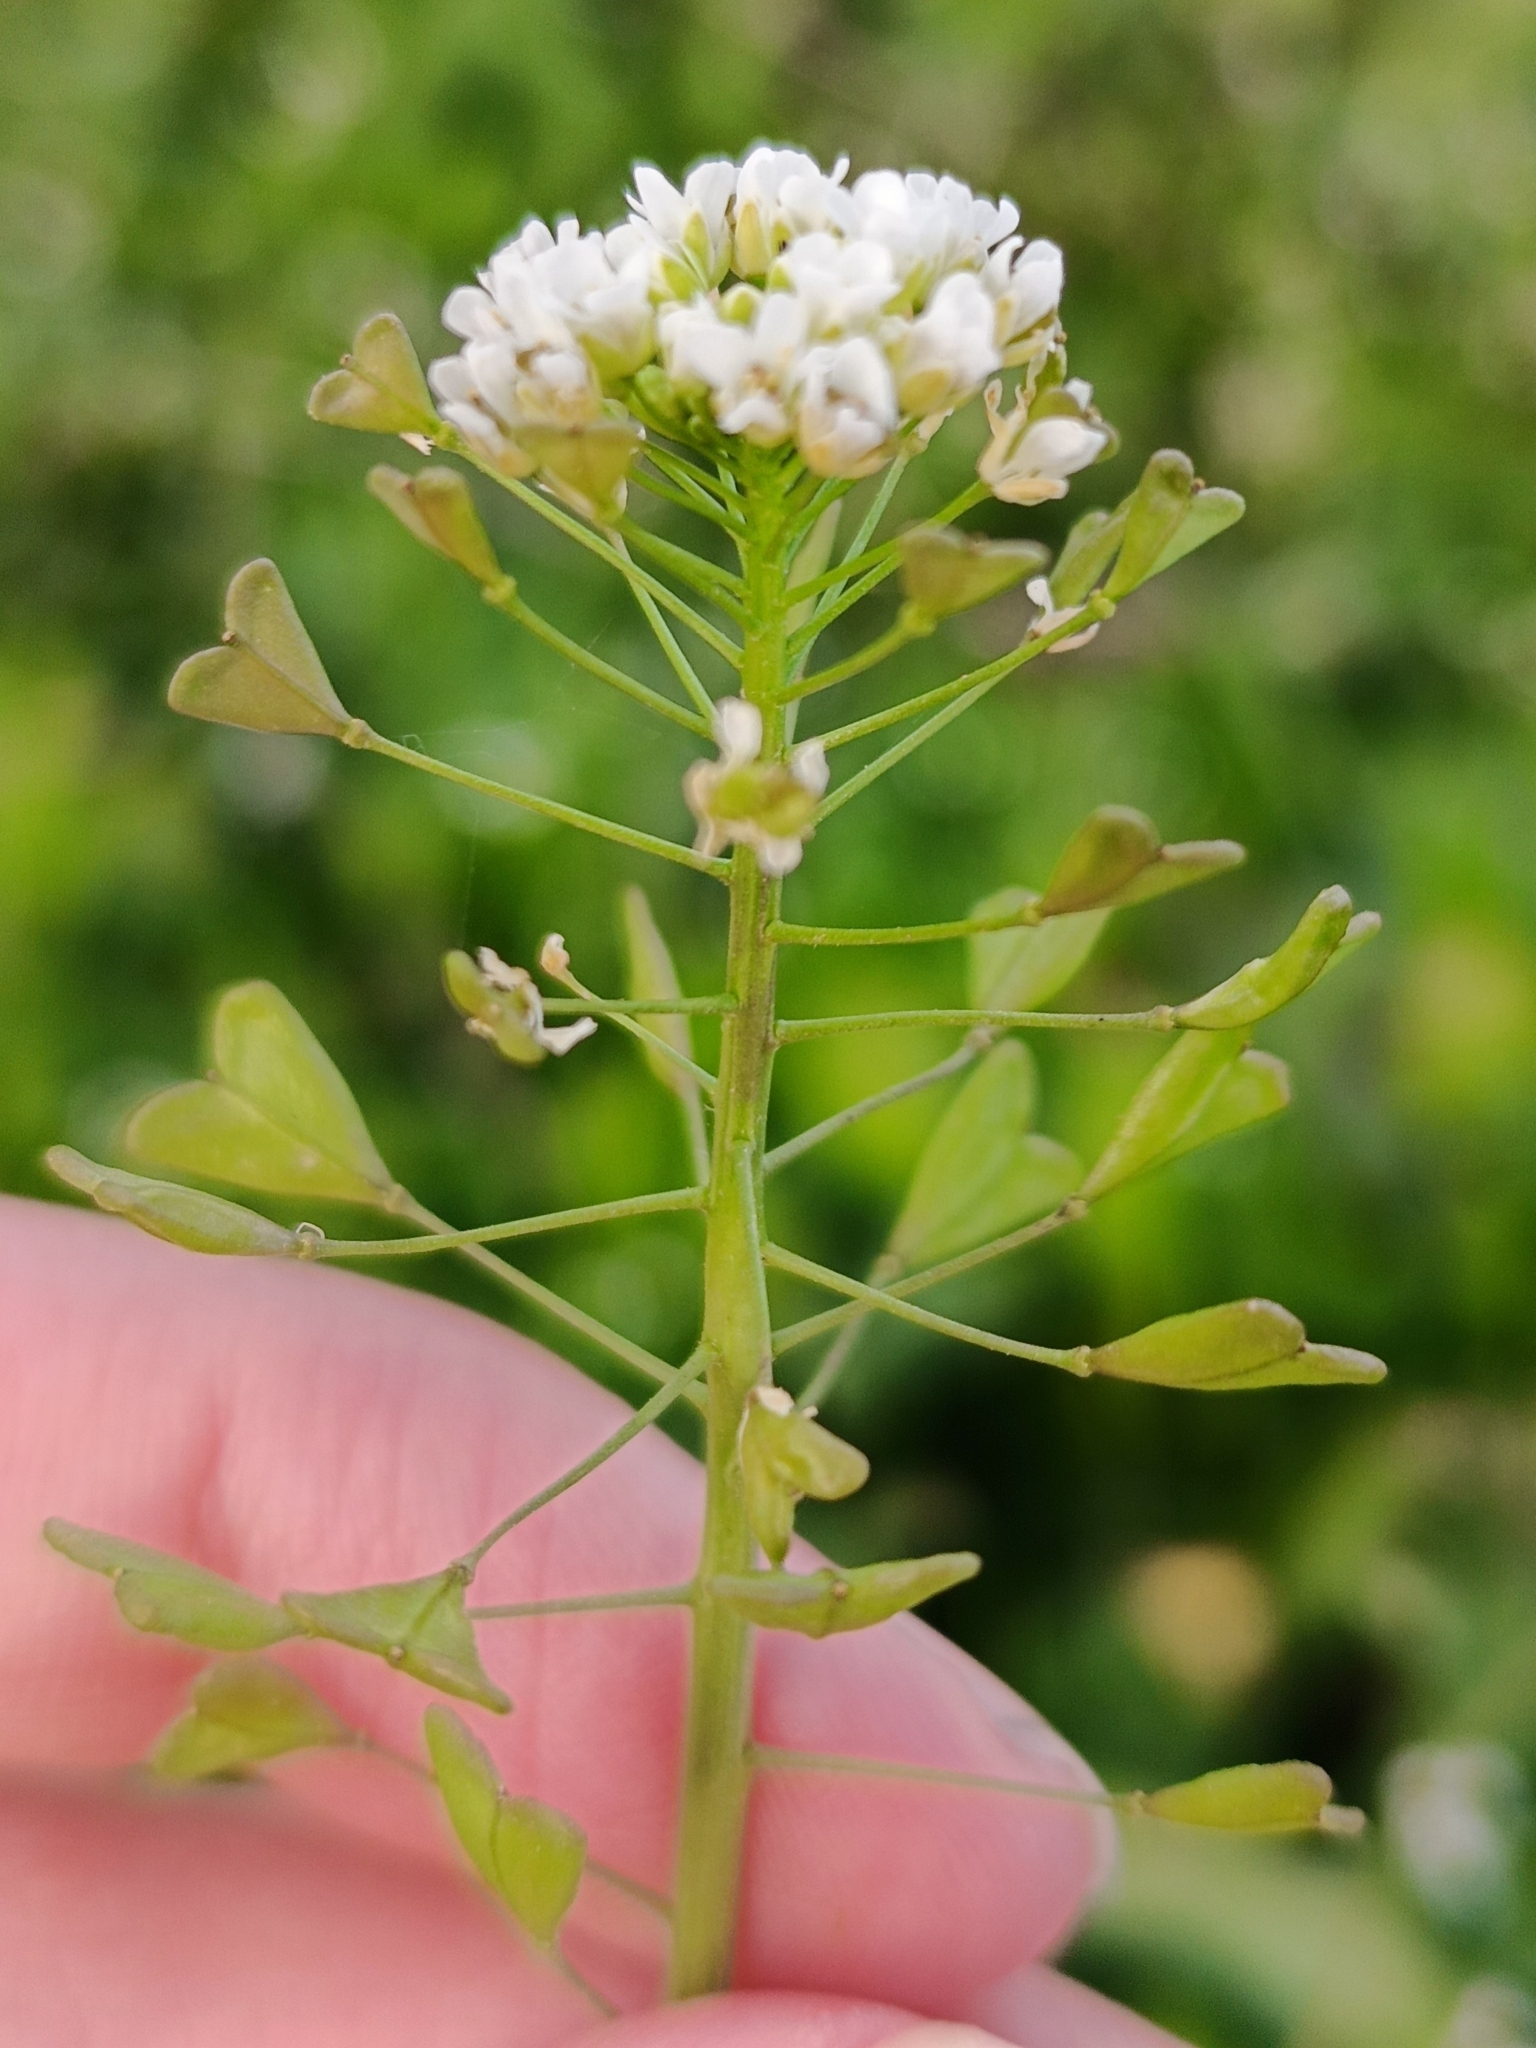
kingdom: Plantae
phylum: Tracheophyta
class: Magnoliopsida
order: Brassicales
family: Brassicaceae
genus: Capsella
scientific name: Capsella bursa-pastoris
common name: Shepherd's purse
